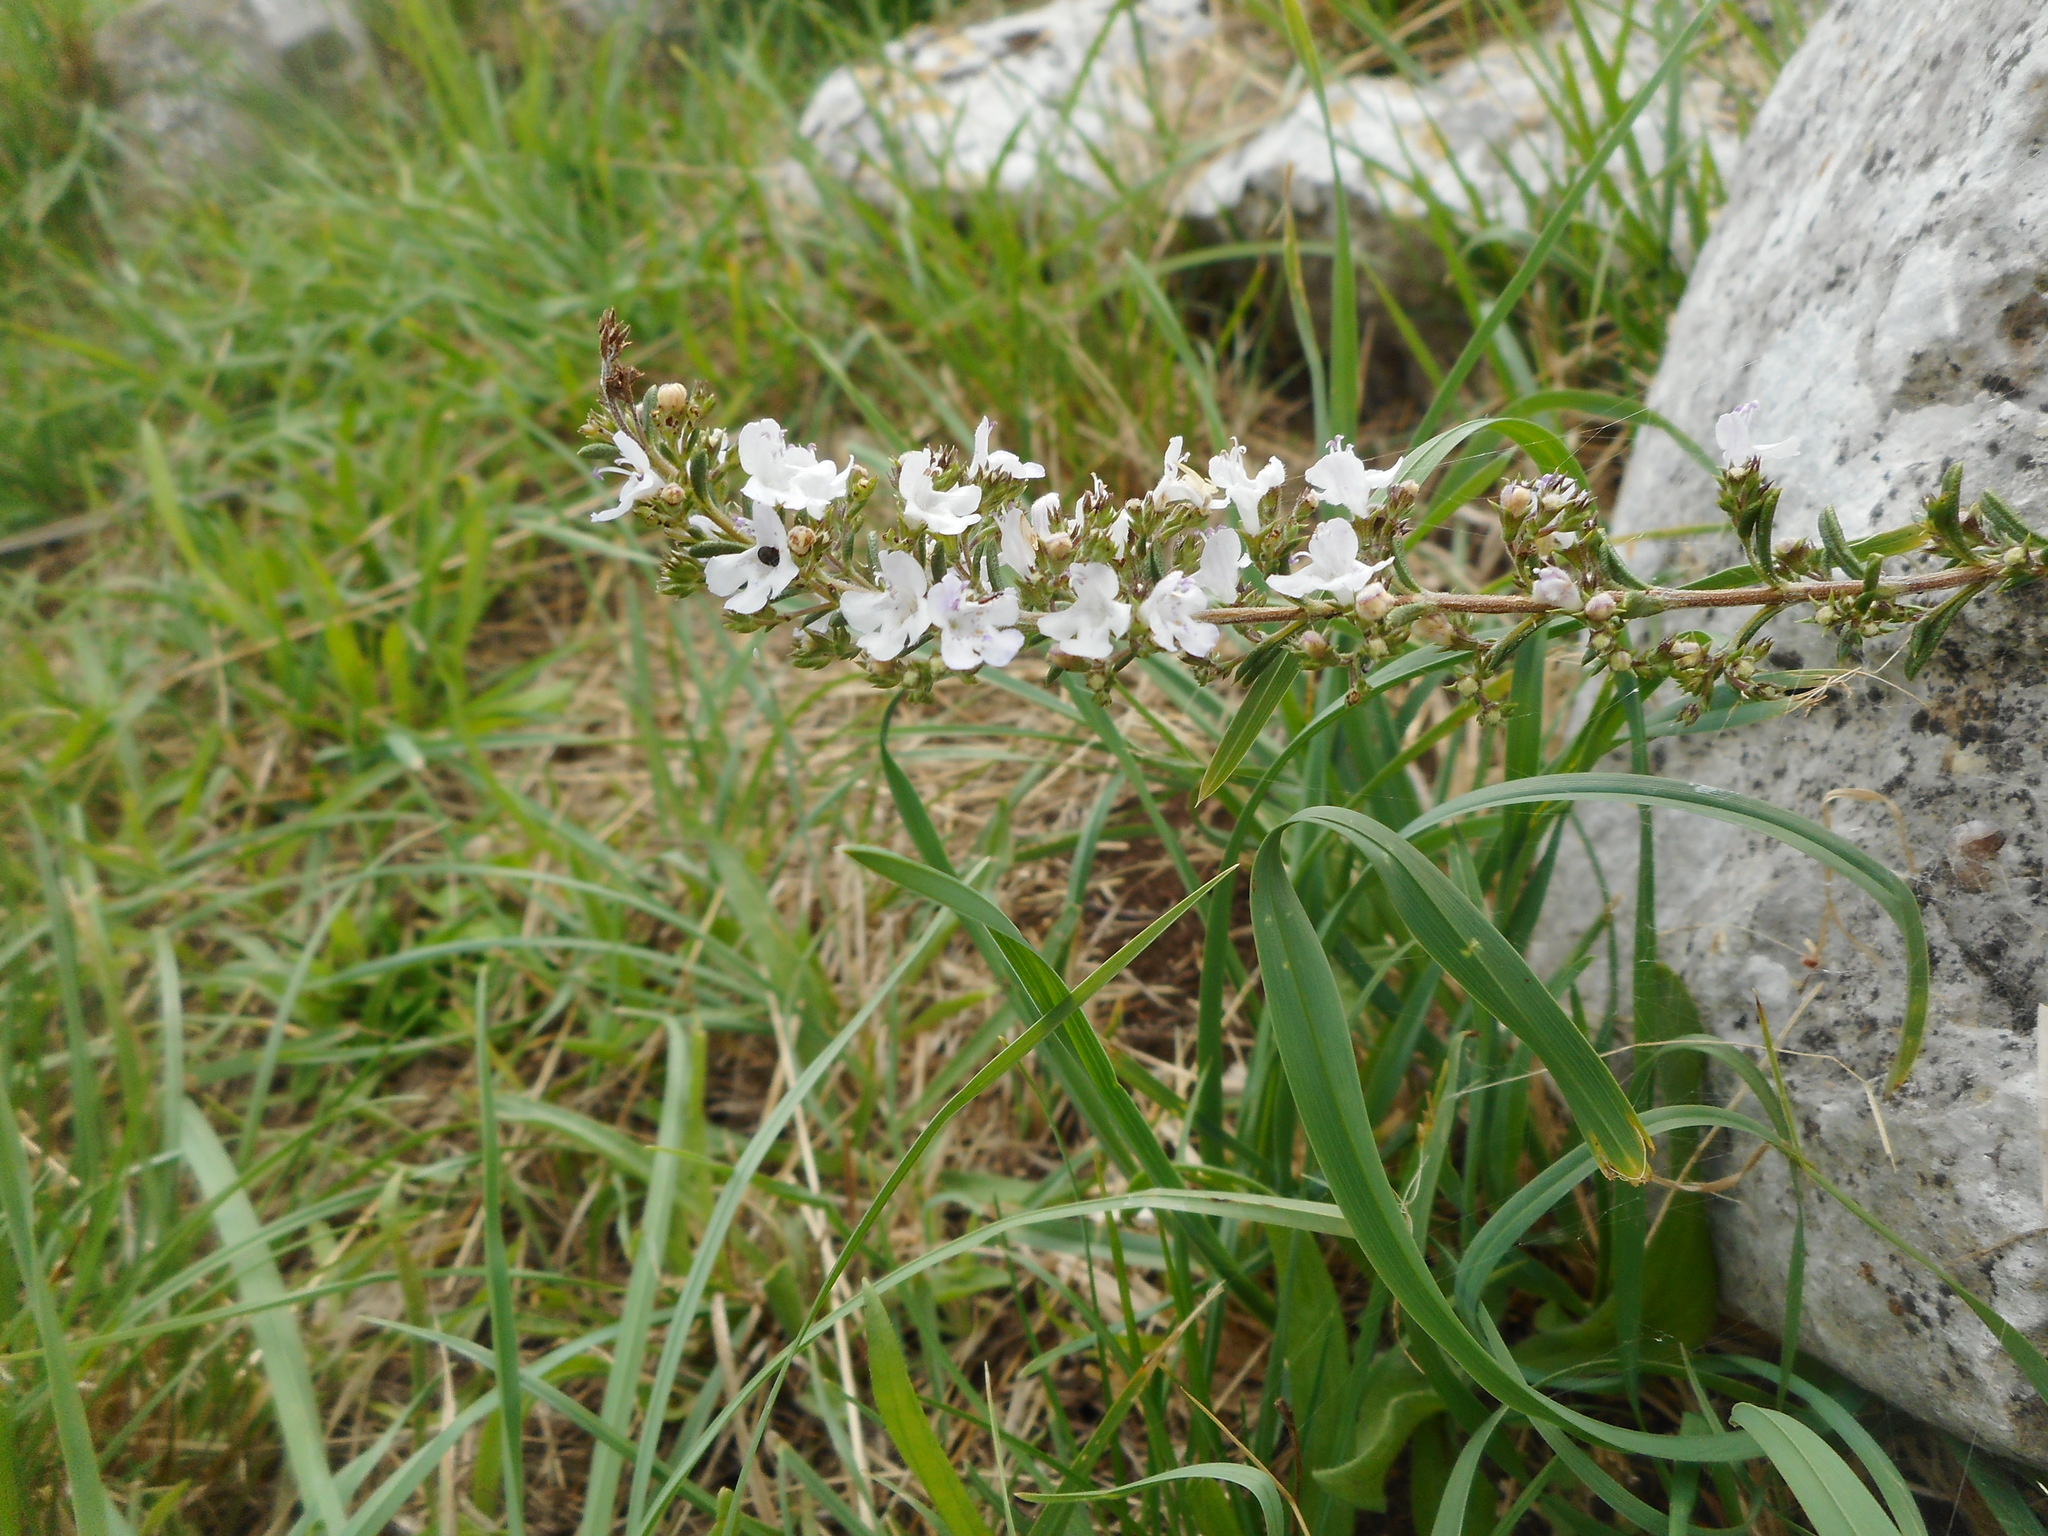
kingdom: Plantae
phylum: Tracheophyta
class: Magnoliopsida
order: Lamiales
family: Lamiaceae
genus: Satureja
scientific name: Satureja montana
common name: Winter savory
